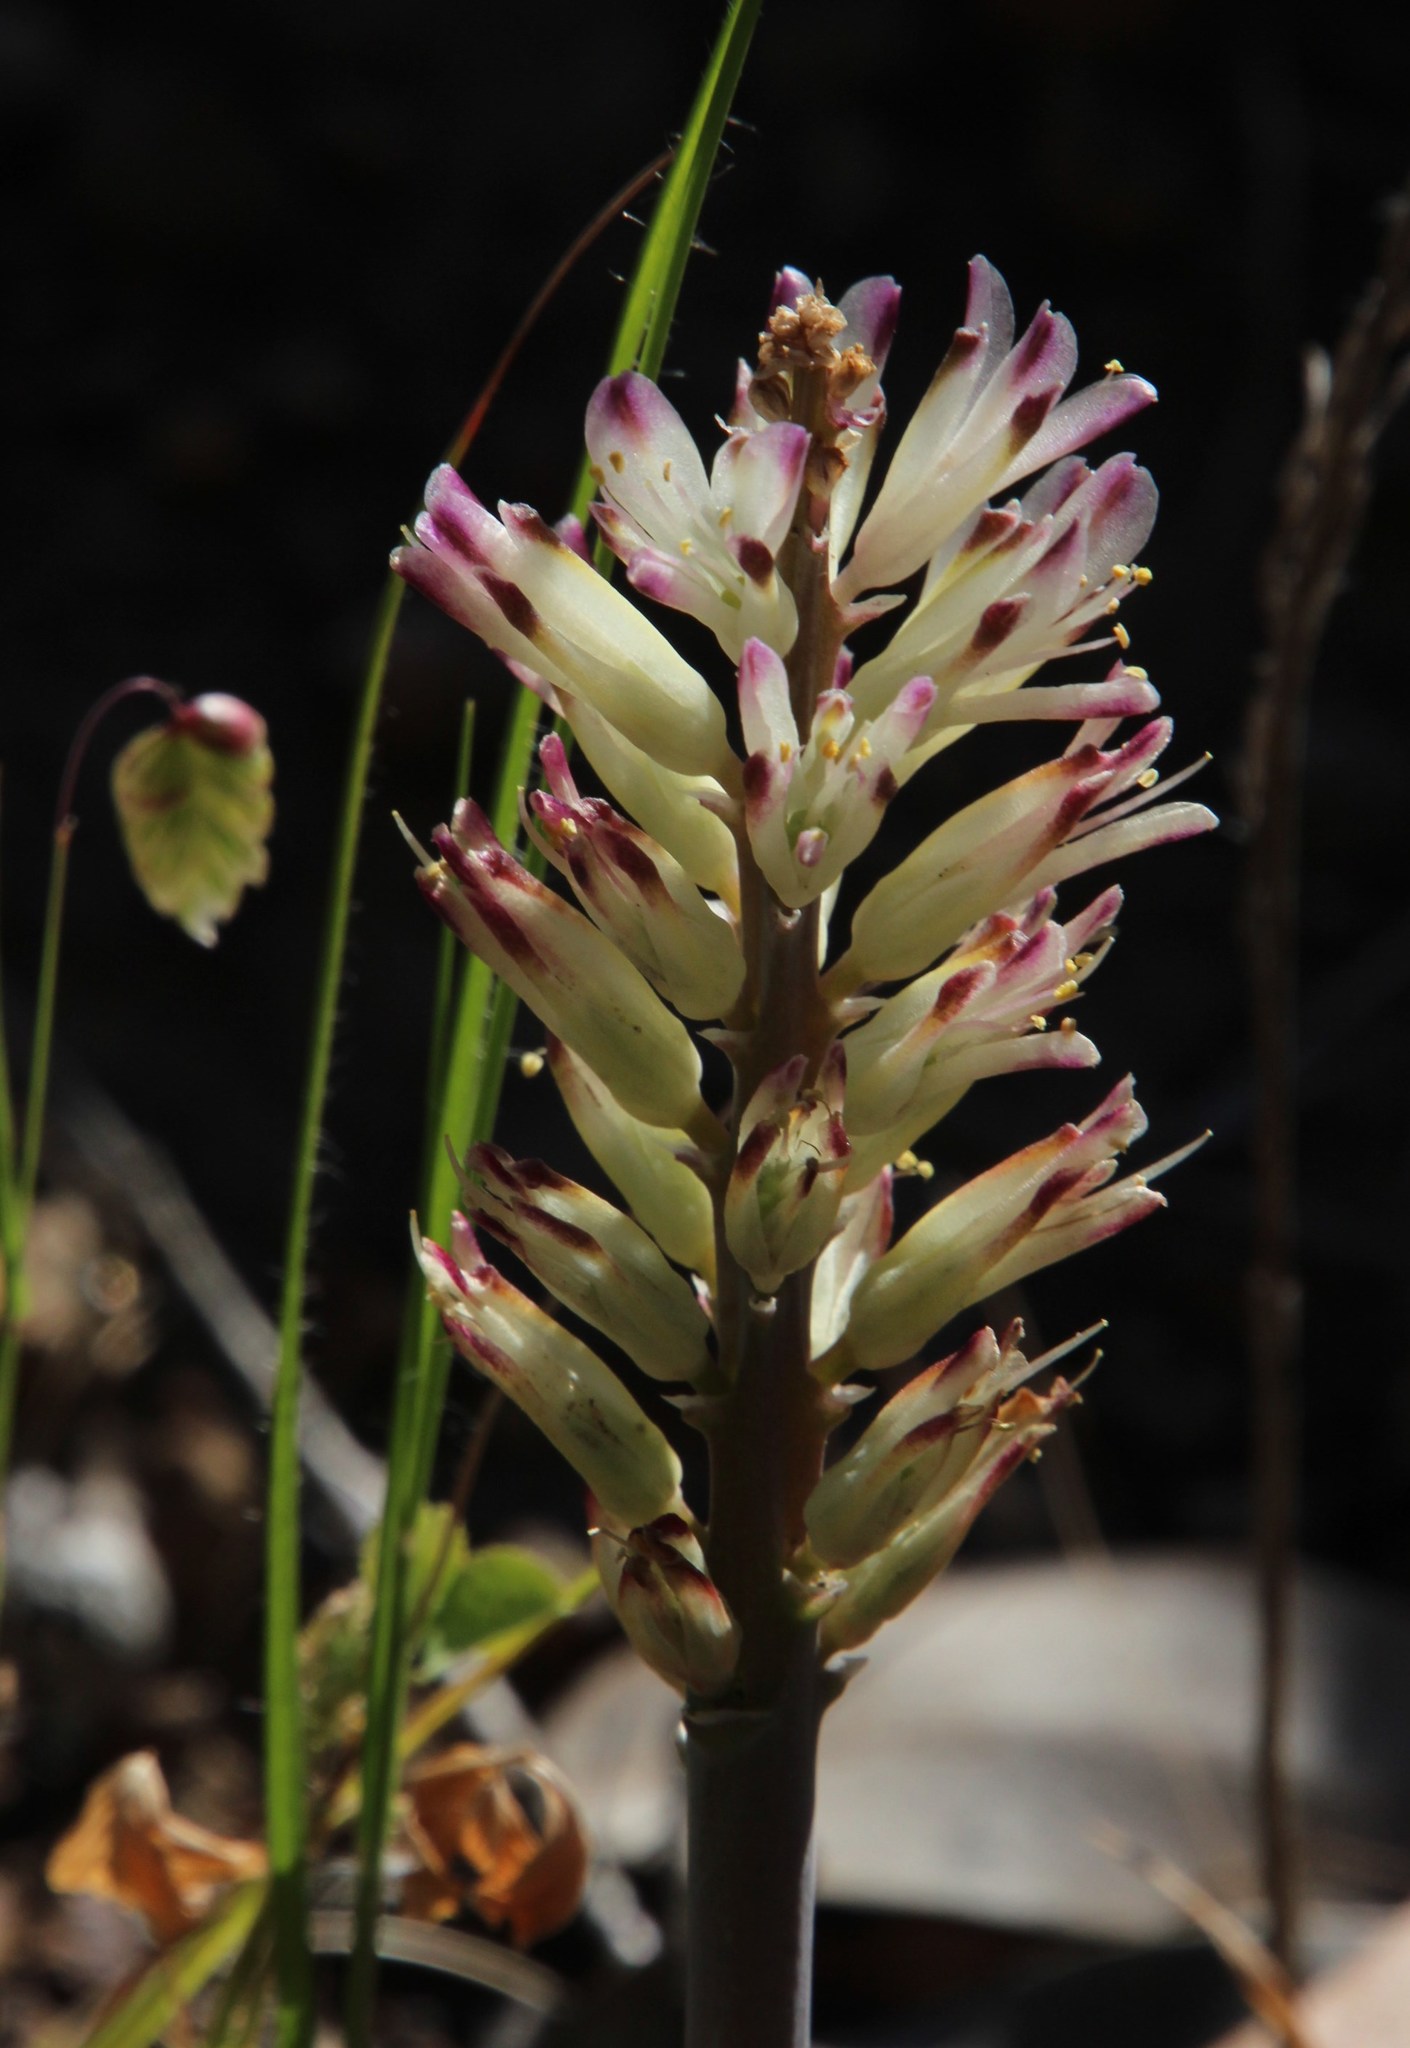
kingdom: Plantae
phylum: Tracheophyta
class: Liliopsida
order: Asparagales
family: Asparagaceae
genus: Lachenalia
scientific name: Lachenalia liliiflora
